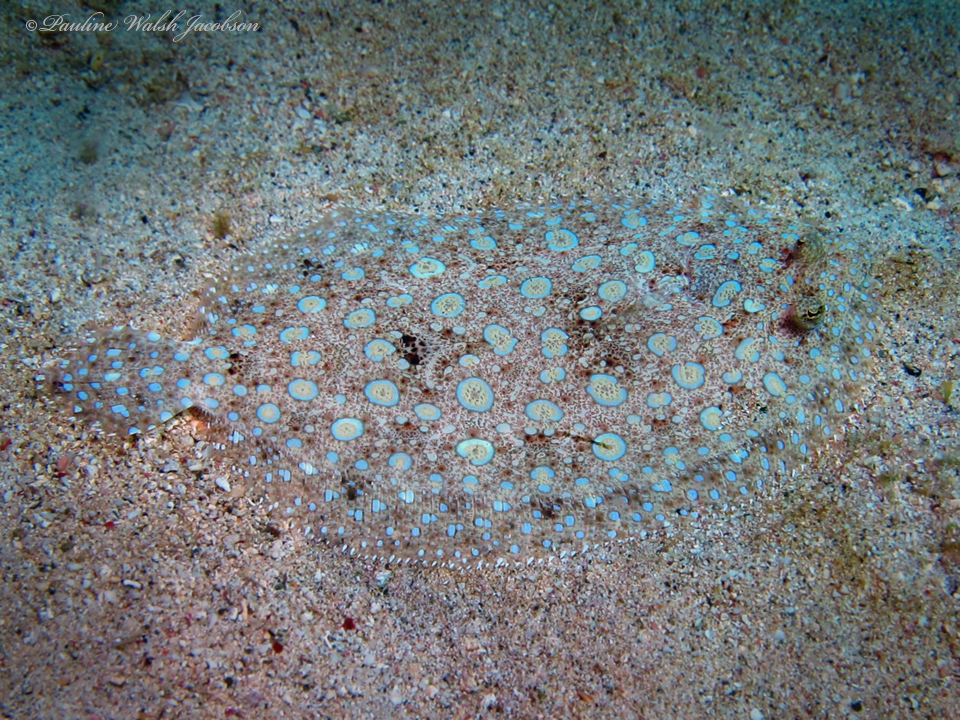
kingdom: Animalia
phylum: Chordata
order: Pleuronectiformes
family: Bothidae
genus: Bothus
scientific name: Bothus lunatus
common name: Peacock flounder
